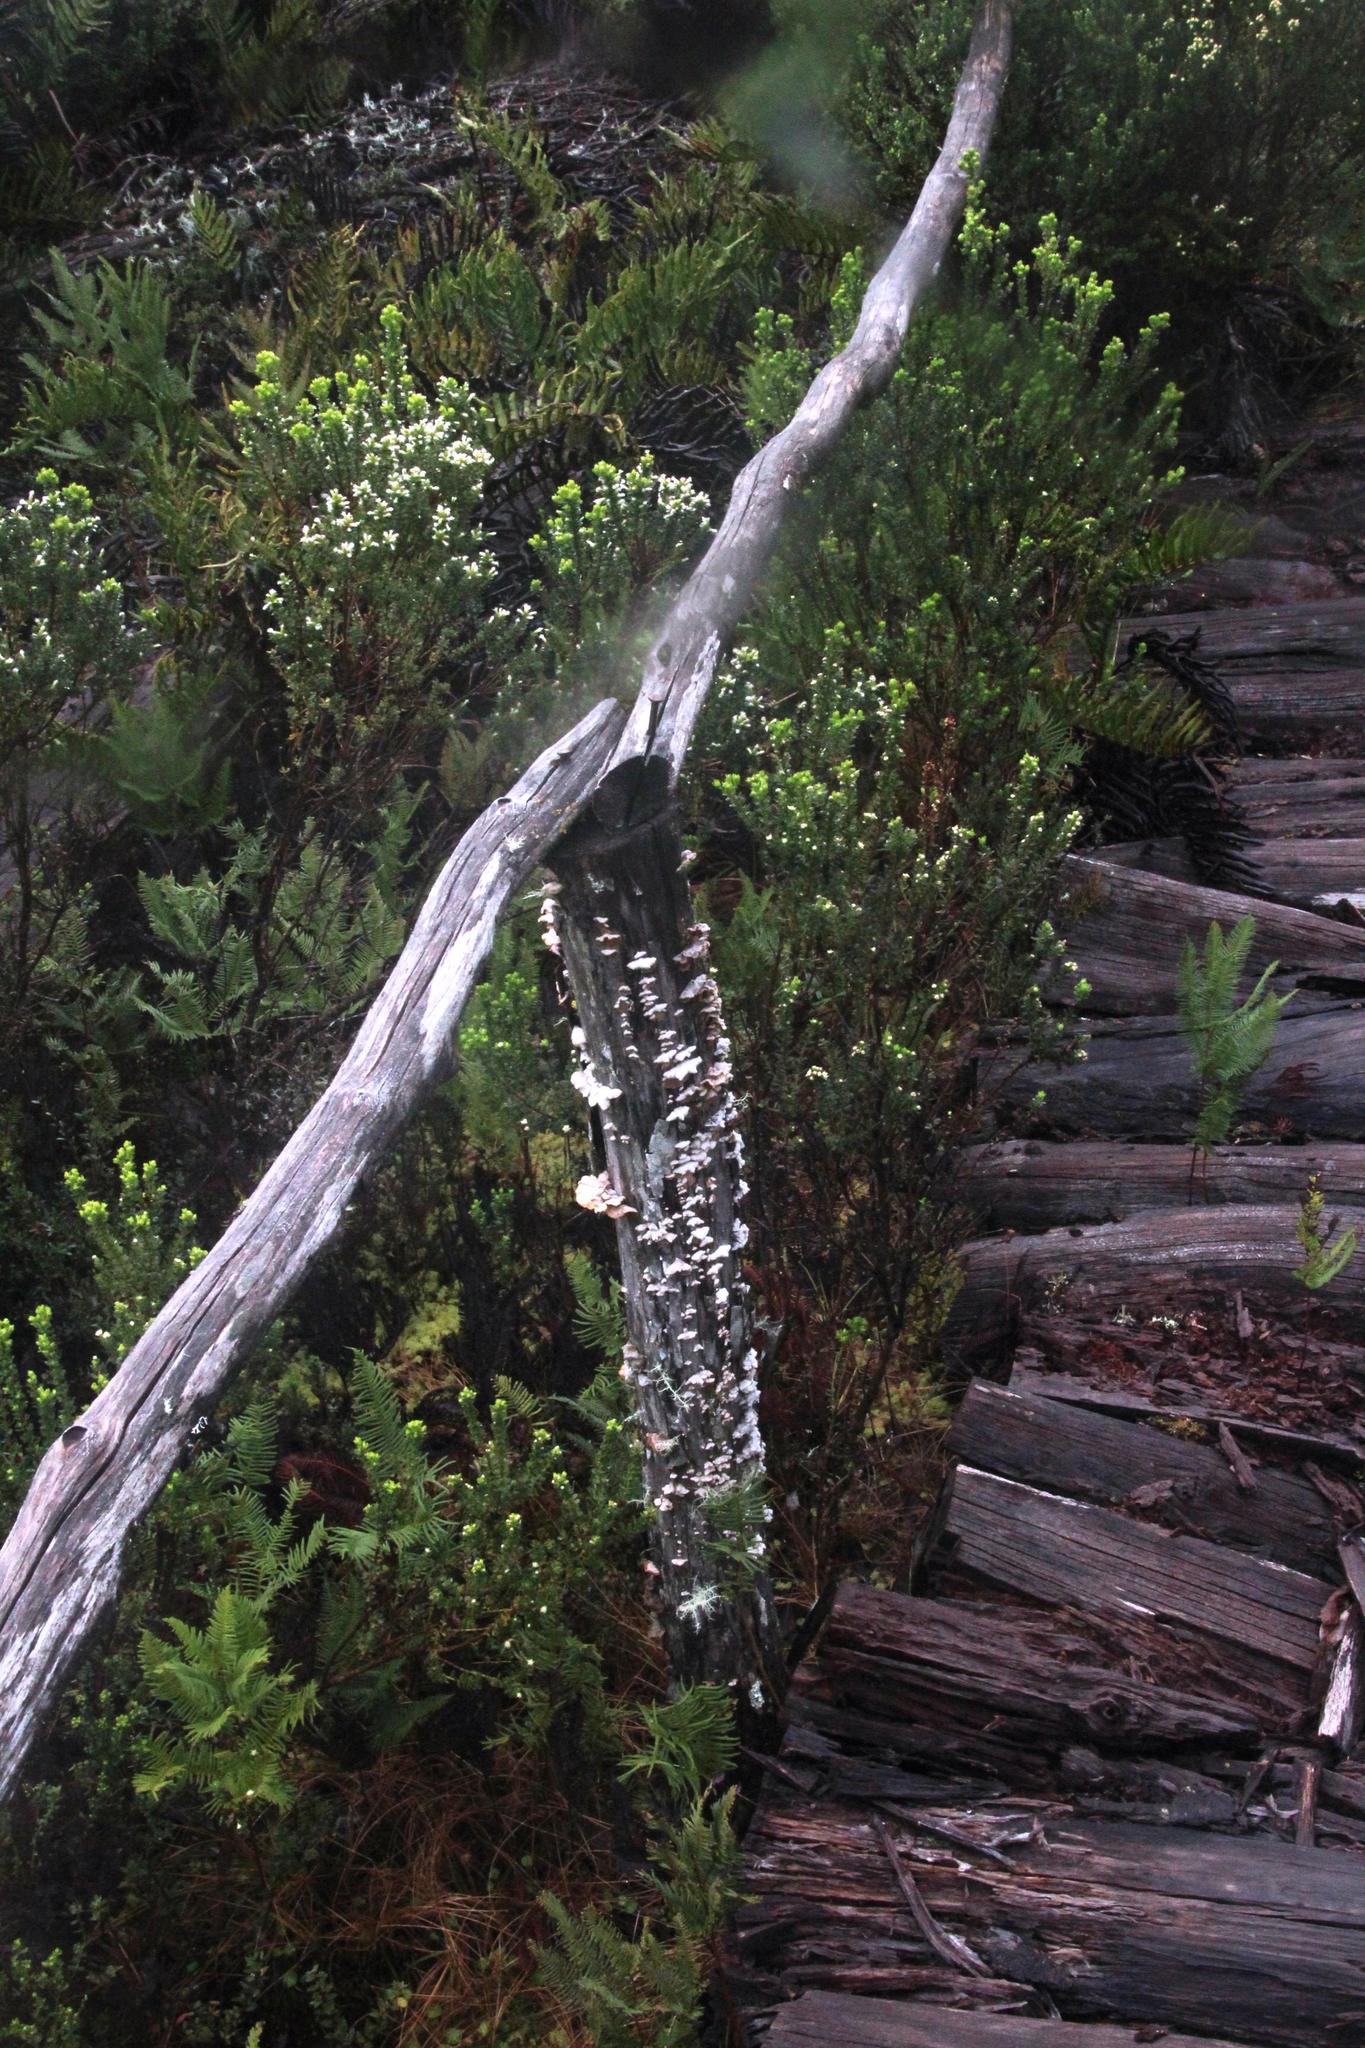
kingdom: Fungi
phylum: Basidiomycota
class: Agaricomycetes
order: Russulales
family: Stereaceae
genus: Stereum
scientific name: Stereum hirsutum
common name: Hairy curtain crust
